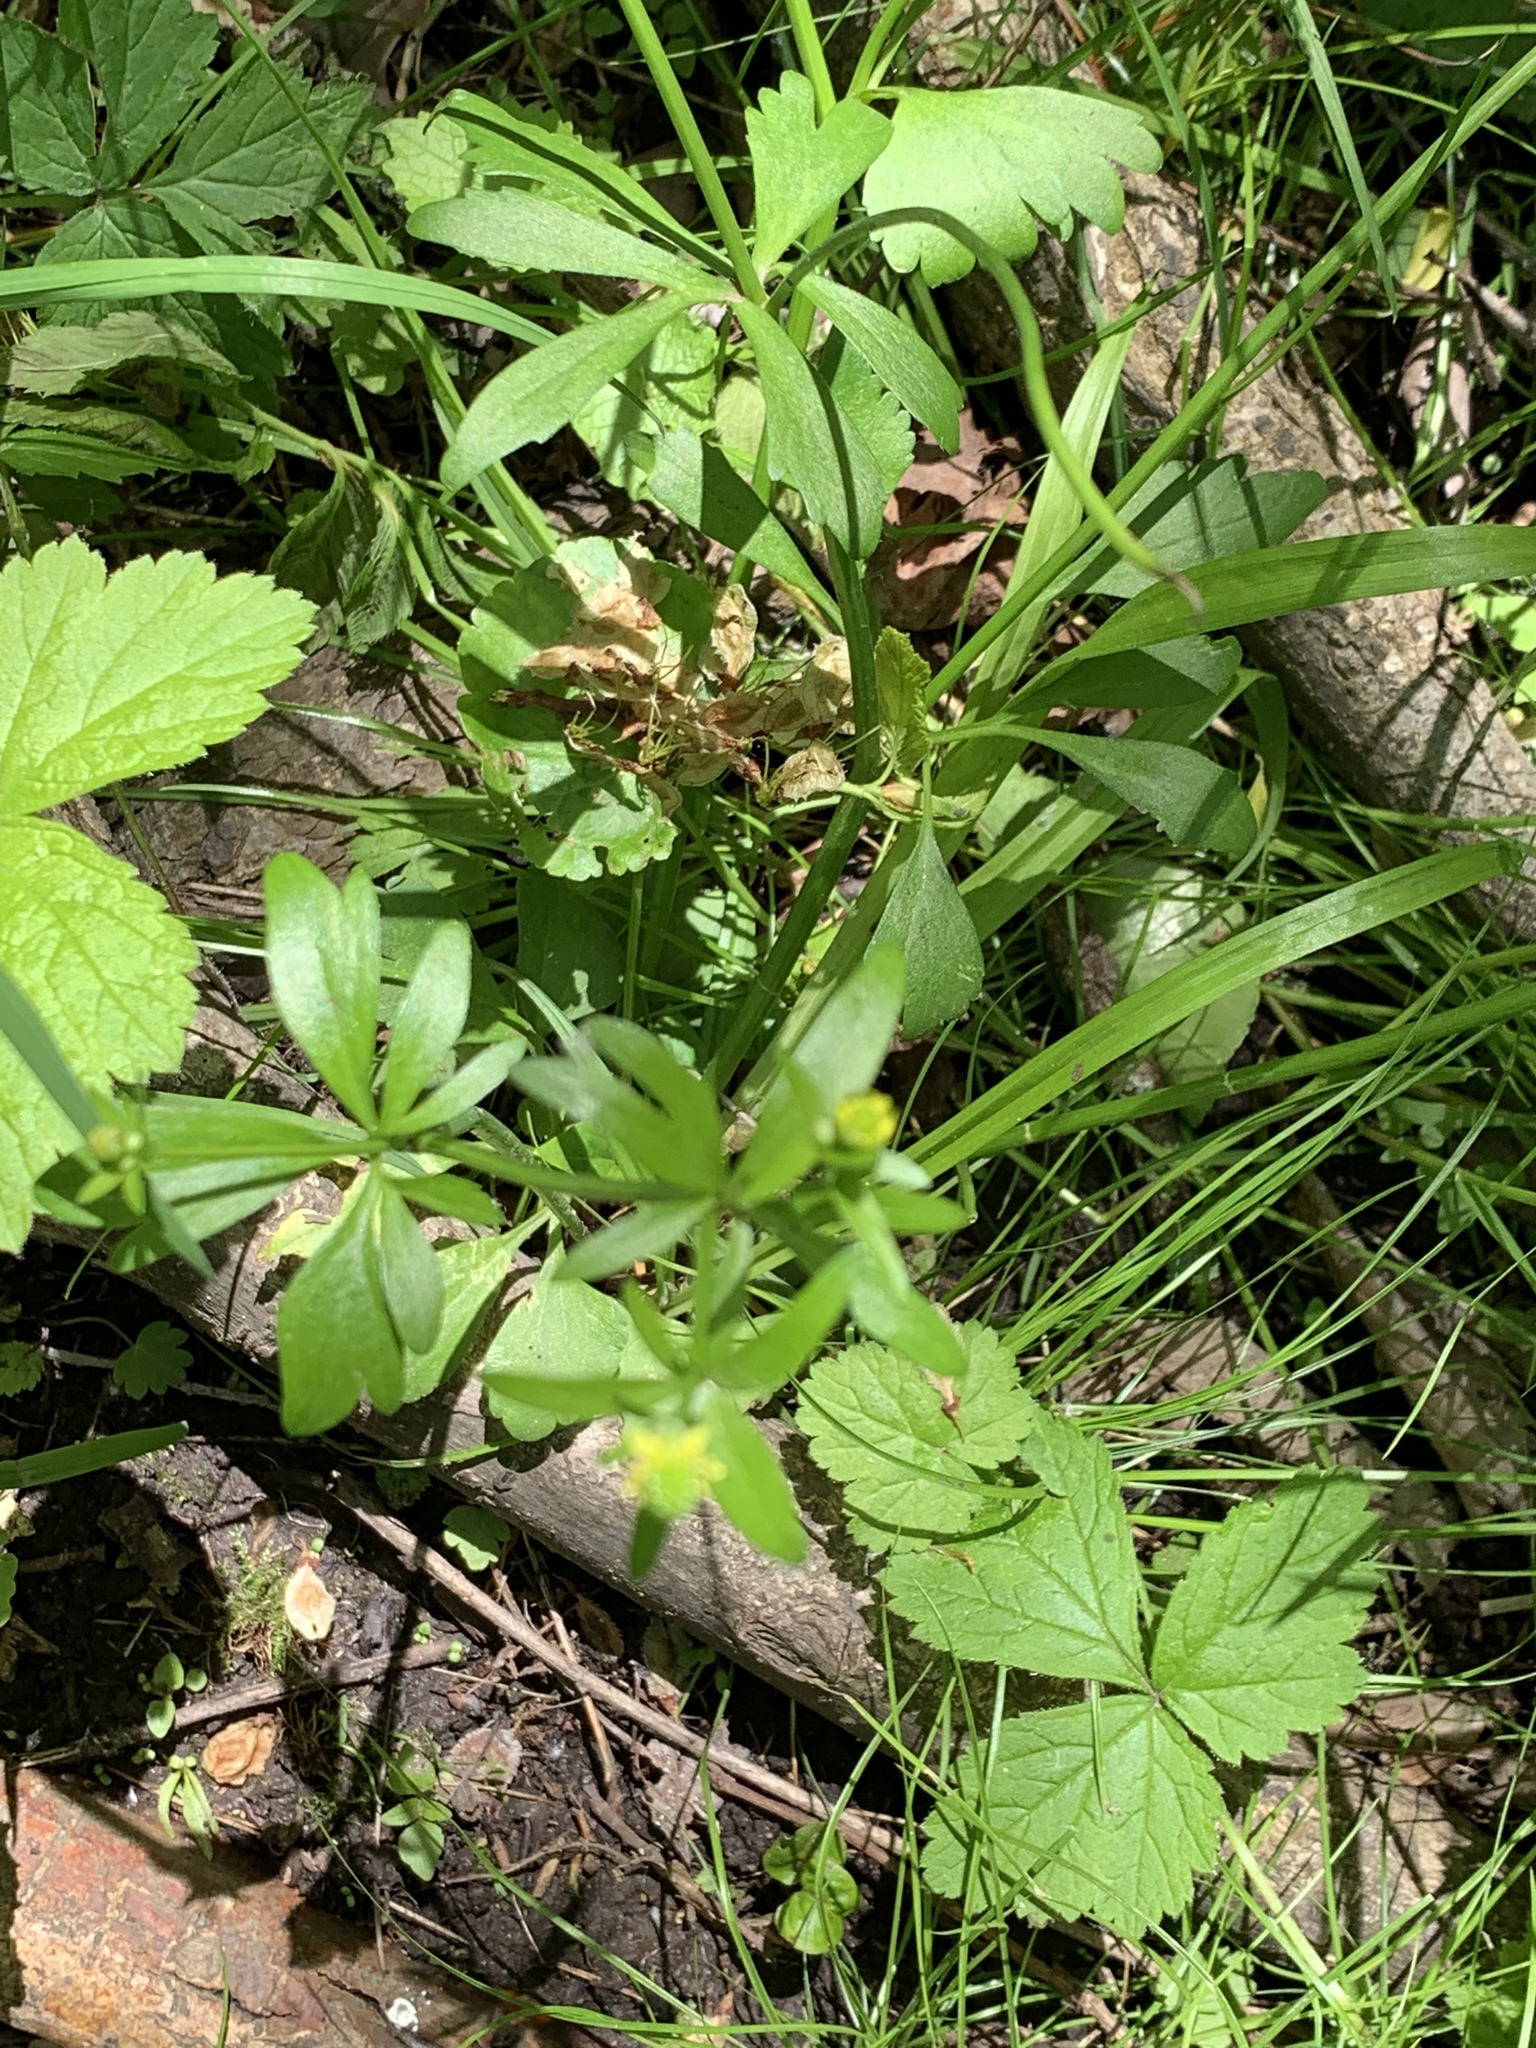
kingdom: Plantae
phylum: Tracheophyta
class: Magnoliopsida
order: Ranunculales
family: Ranunculaceae
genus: Ranunculus
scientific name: Ranunculus abortivus
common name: Early wood buttercup
